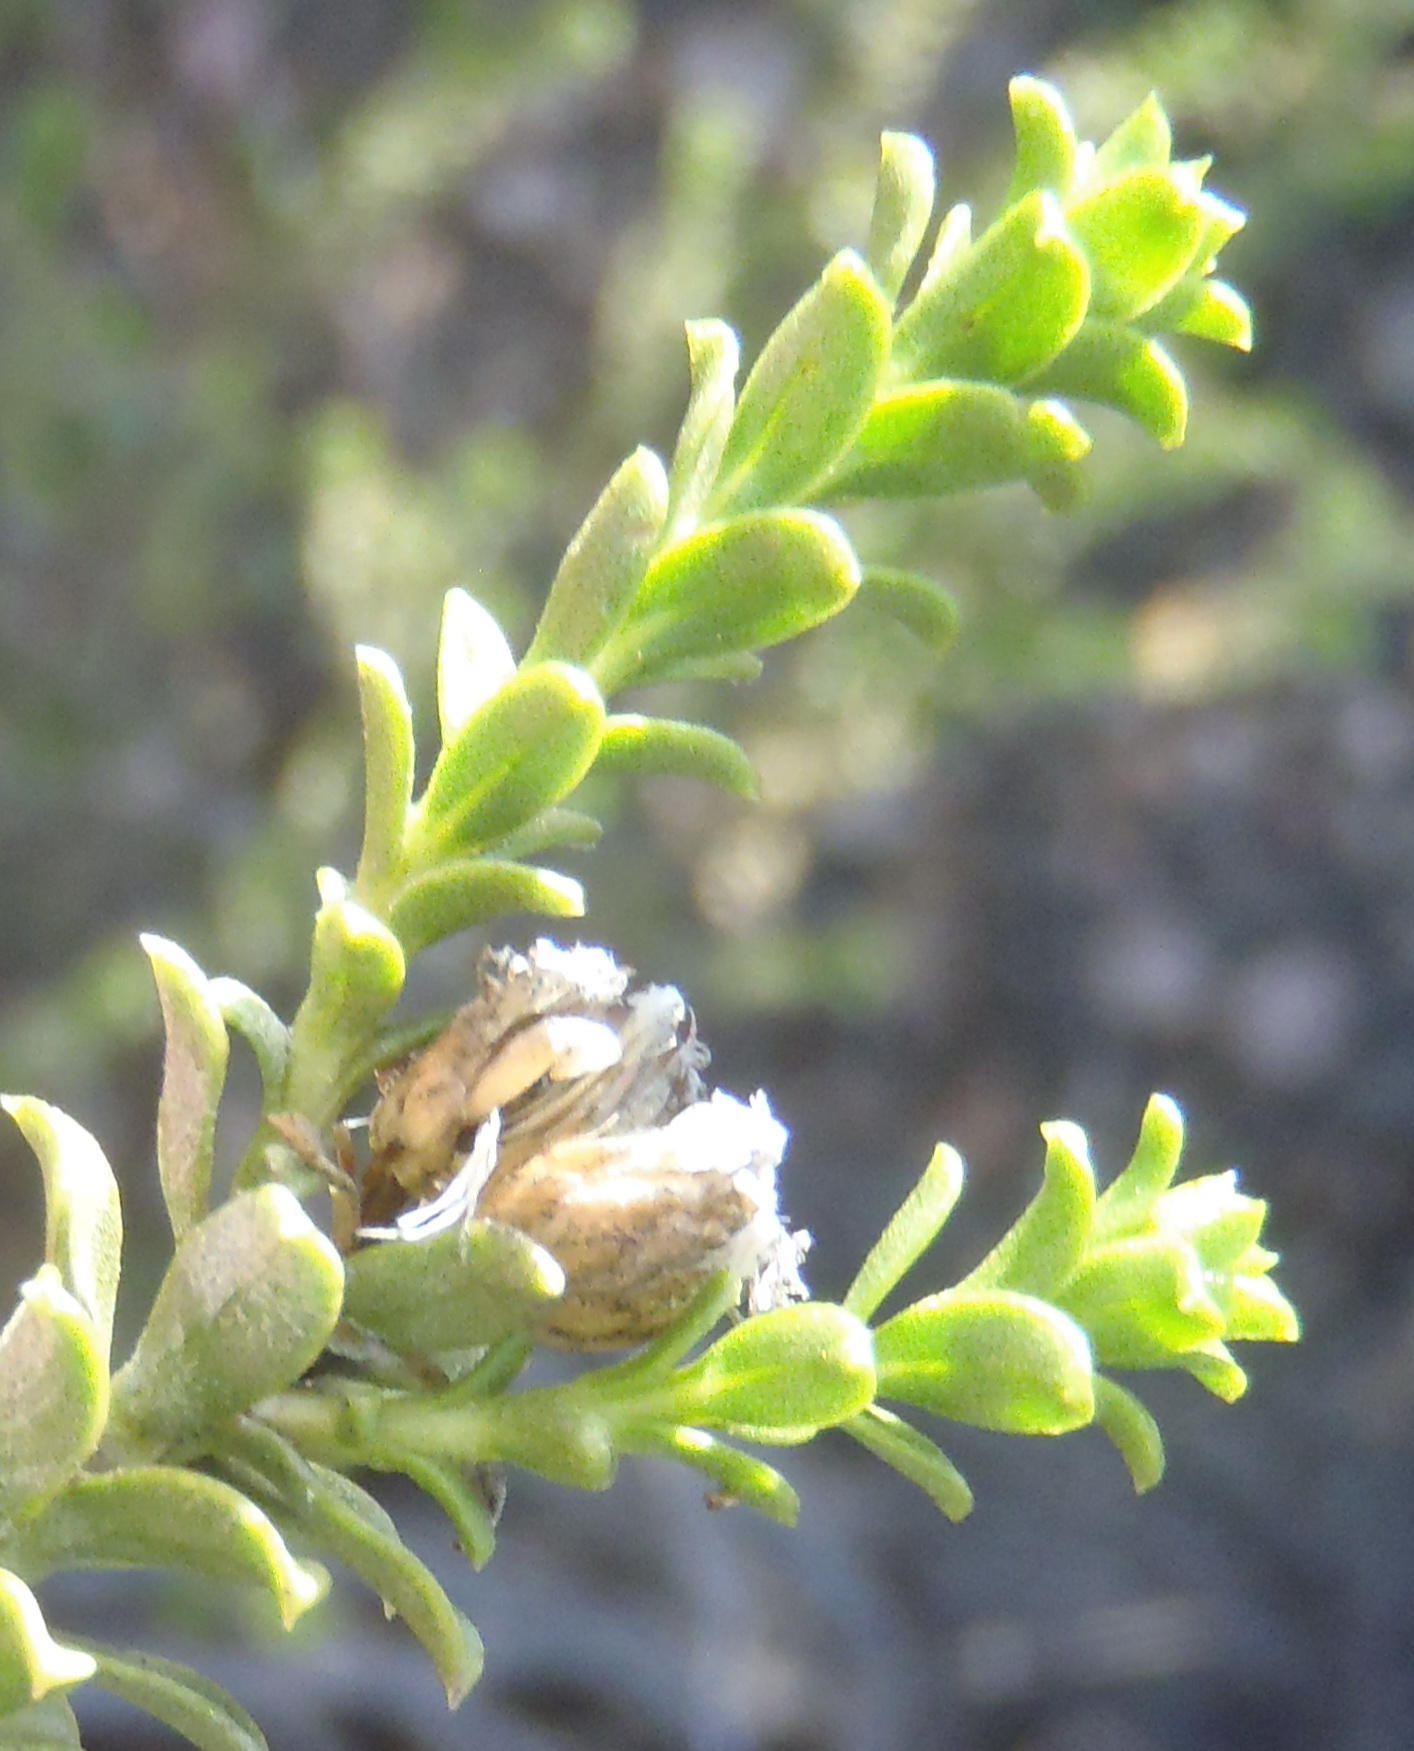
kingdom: Plantae
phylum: Tracheophyta
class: Magnoliopsida
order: Asterales
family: Asteraceae
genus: Oedera
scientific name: Oedera squarrosa
